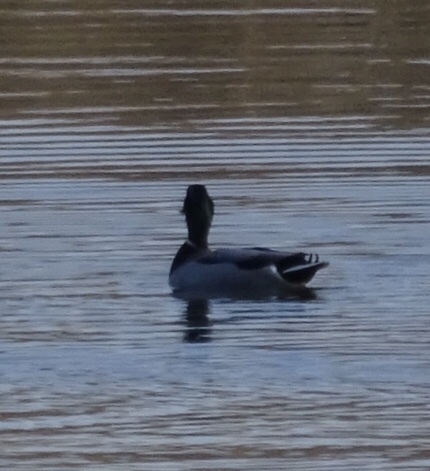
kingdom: Animalia
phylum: Chordata
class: Aves
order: Anseriformes
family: Anatidae
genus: Anas
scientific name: Anas platyrhynchos
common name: Mallard
